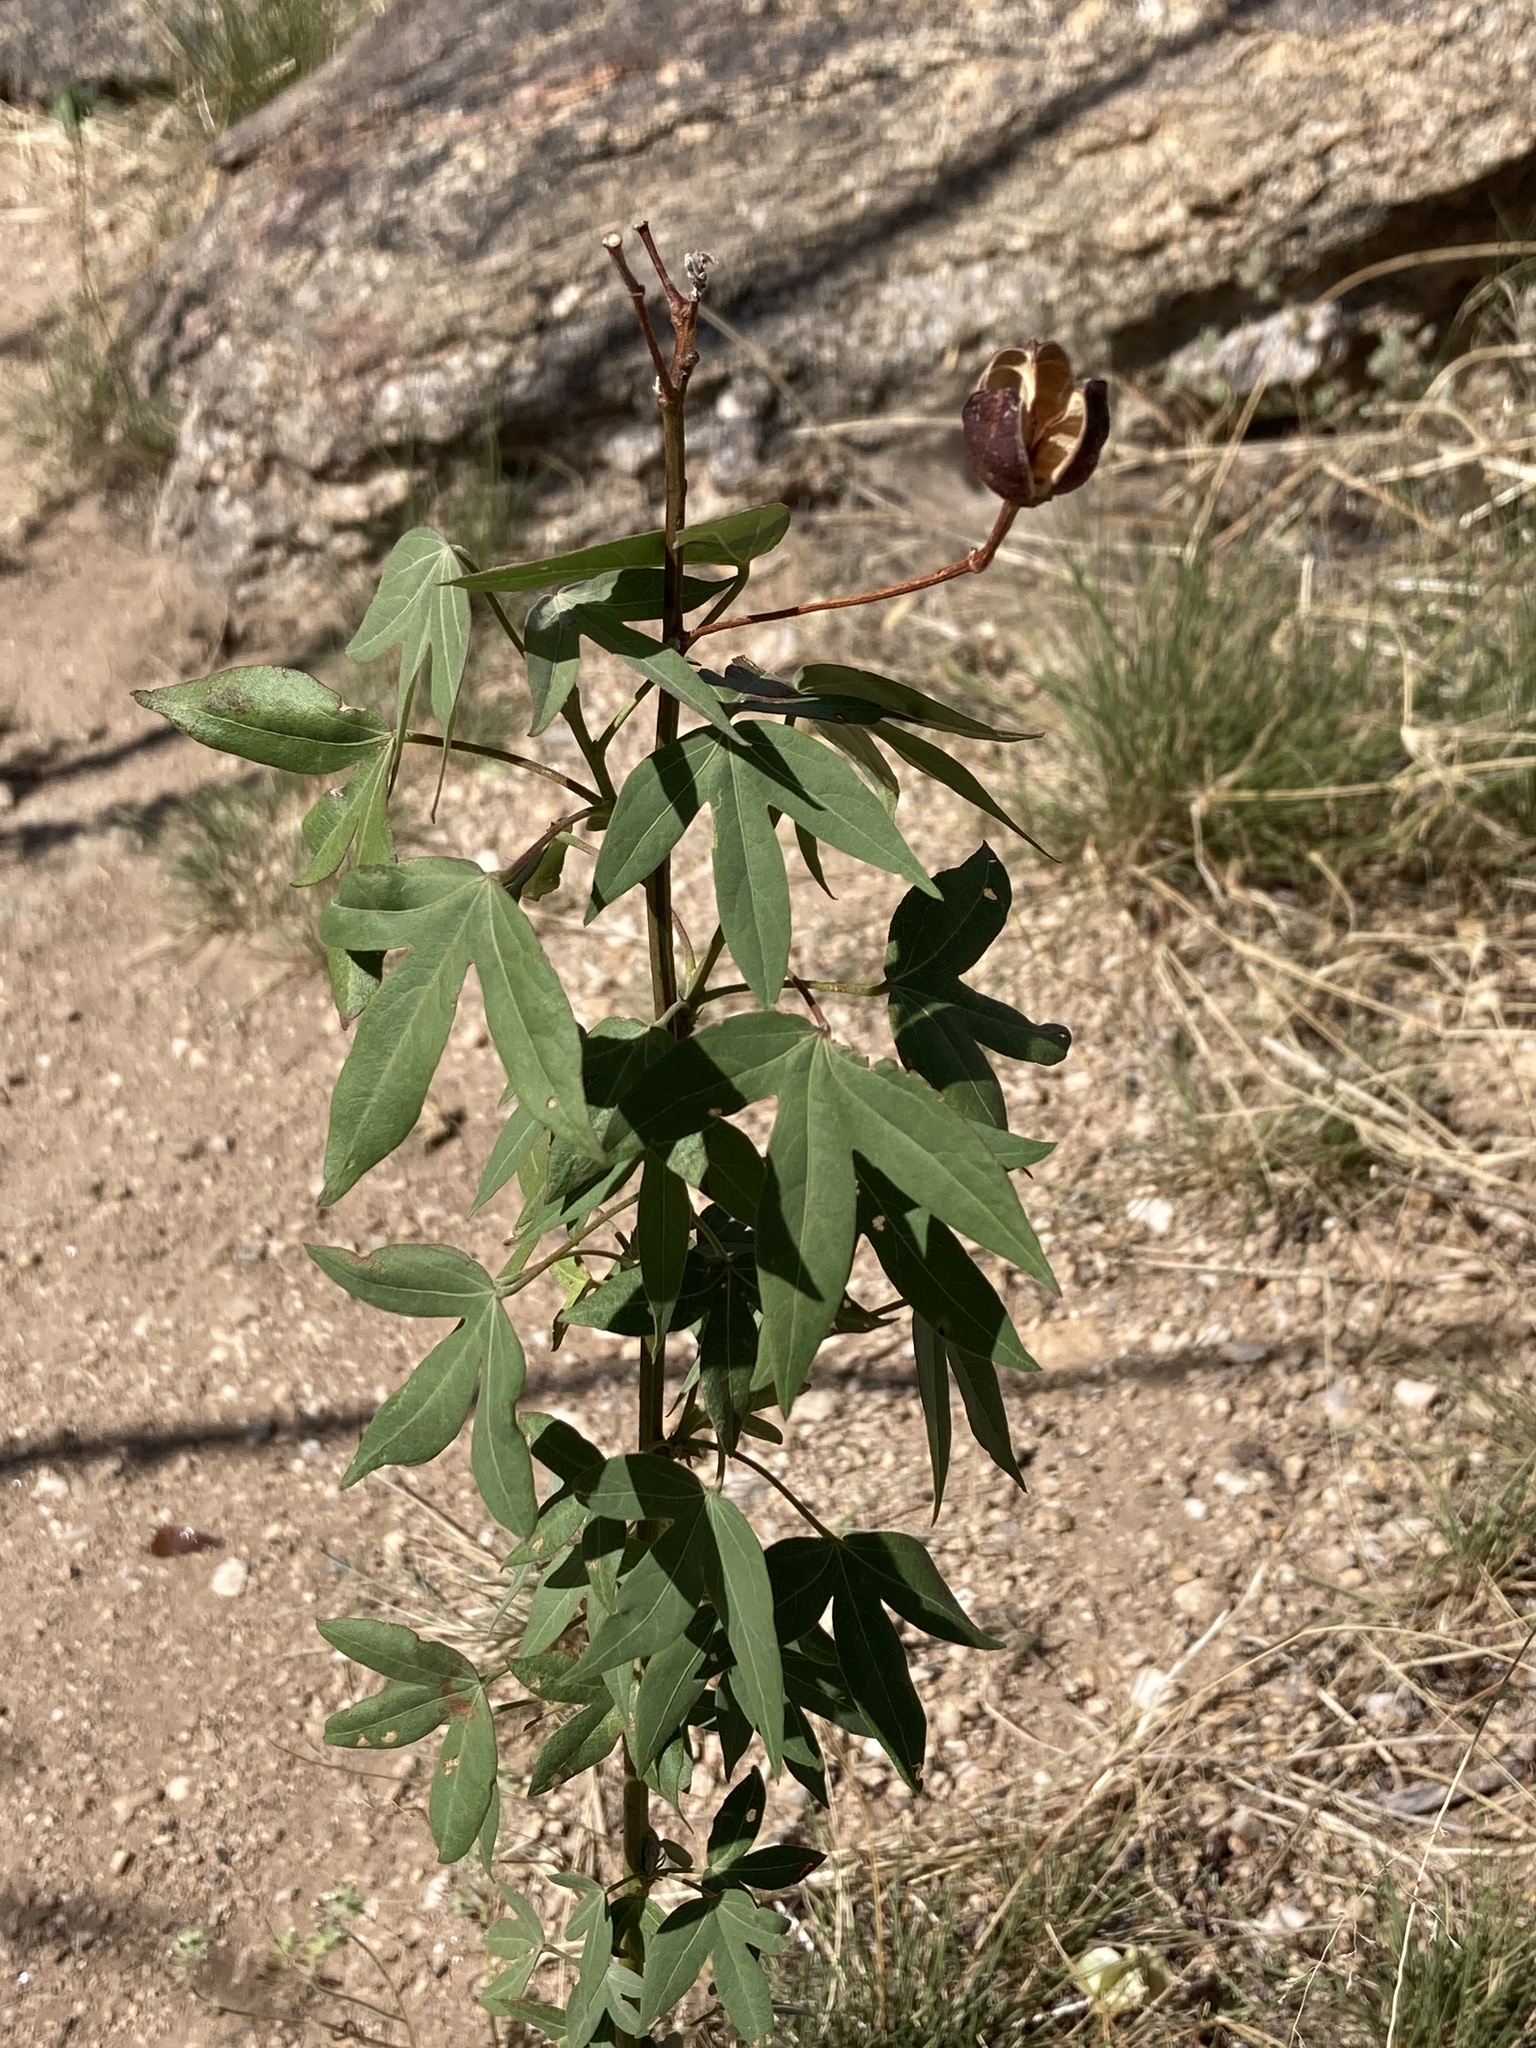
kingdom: Plantae
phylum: Tracheophyta
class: Magnoliopsida
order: Malvales
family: Malvaceae
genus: Gossypium
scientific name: Gossypium thurberi
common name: Desert cotton
